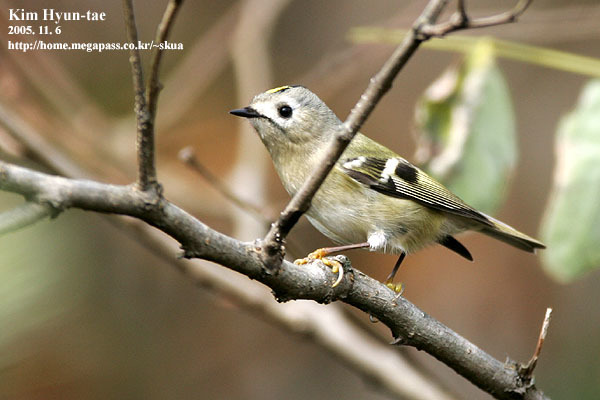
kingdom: Animalia
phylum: Chordata
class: Aves
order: Passeriformes
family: Regulidae
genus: Regulus
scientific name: Regulus regulus
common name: Goldcrest
